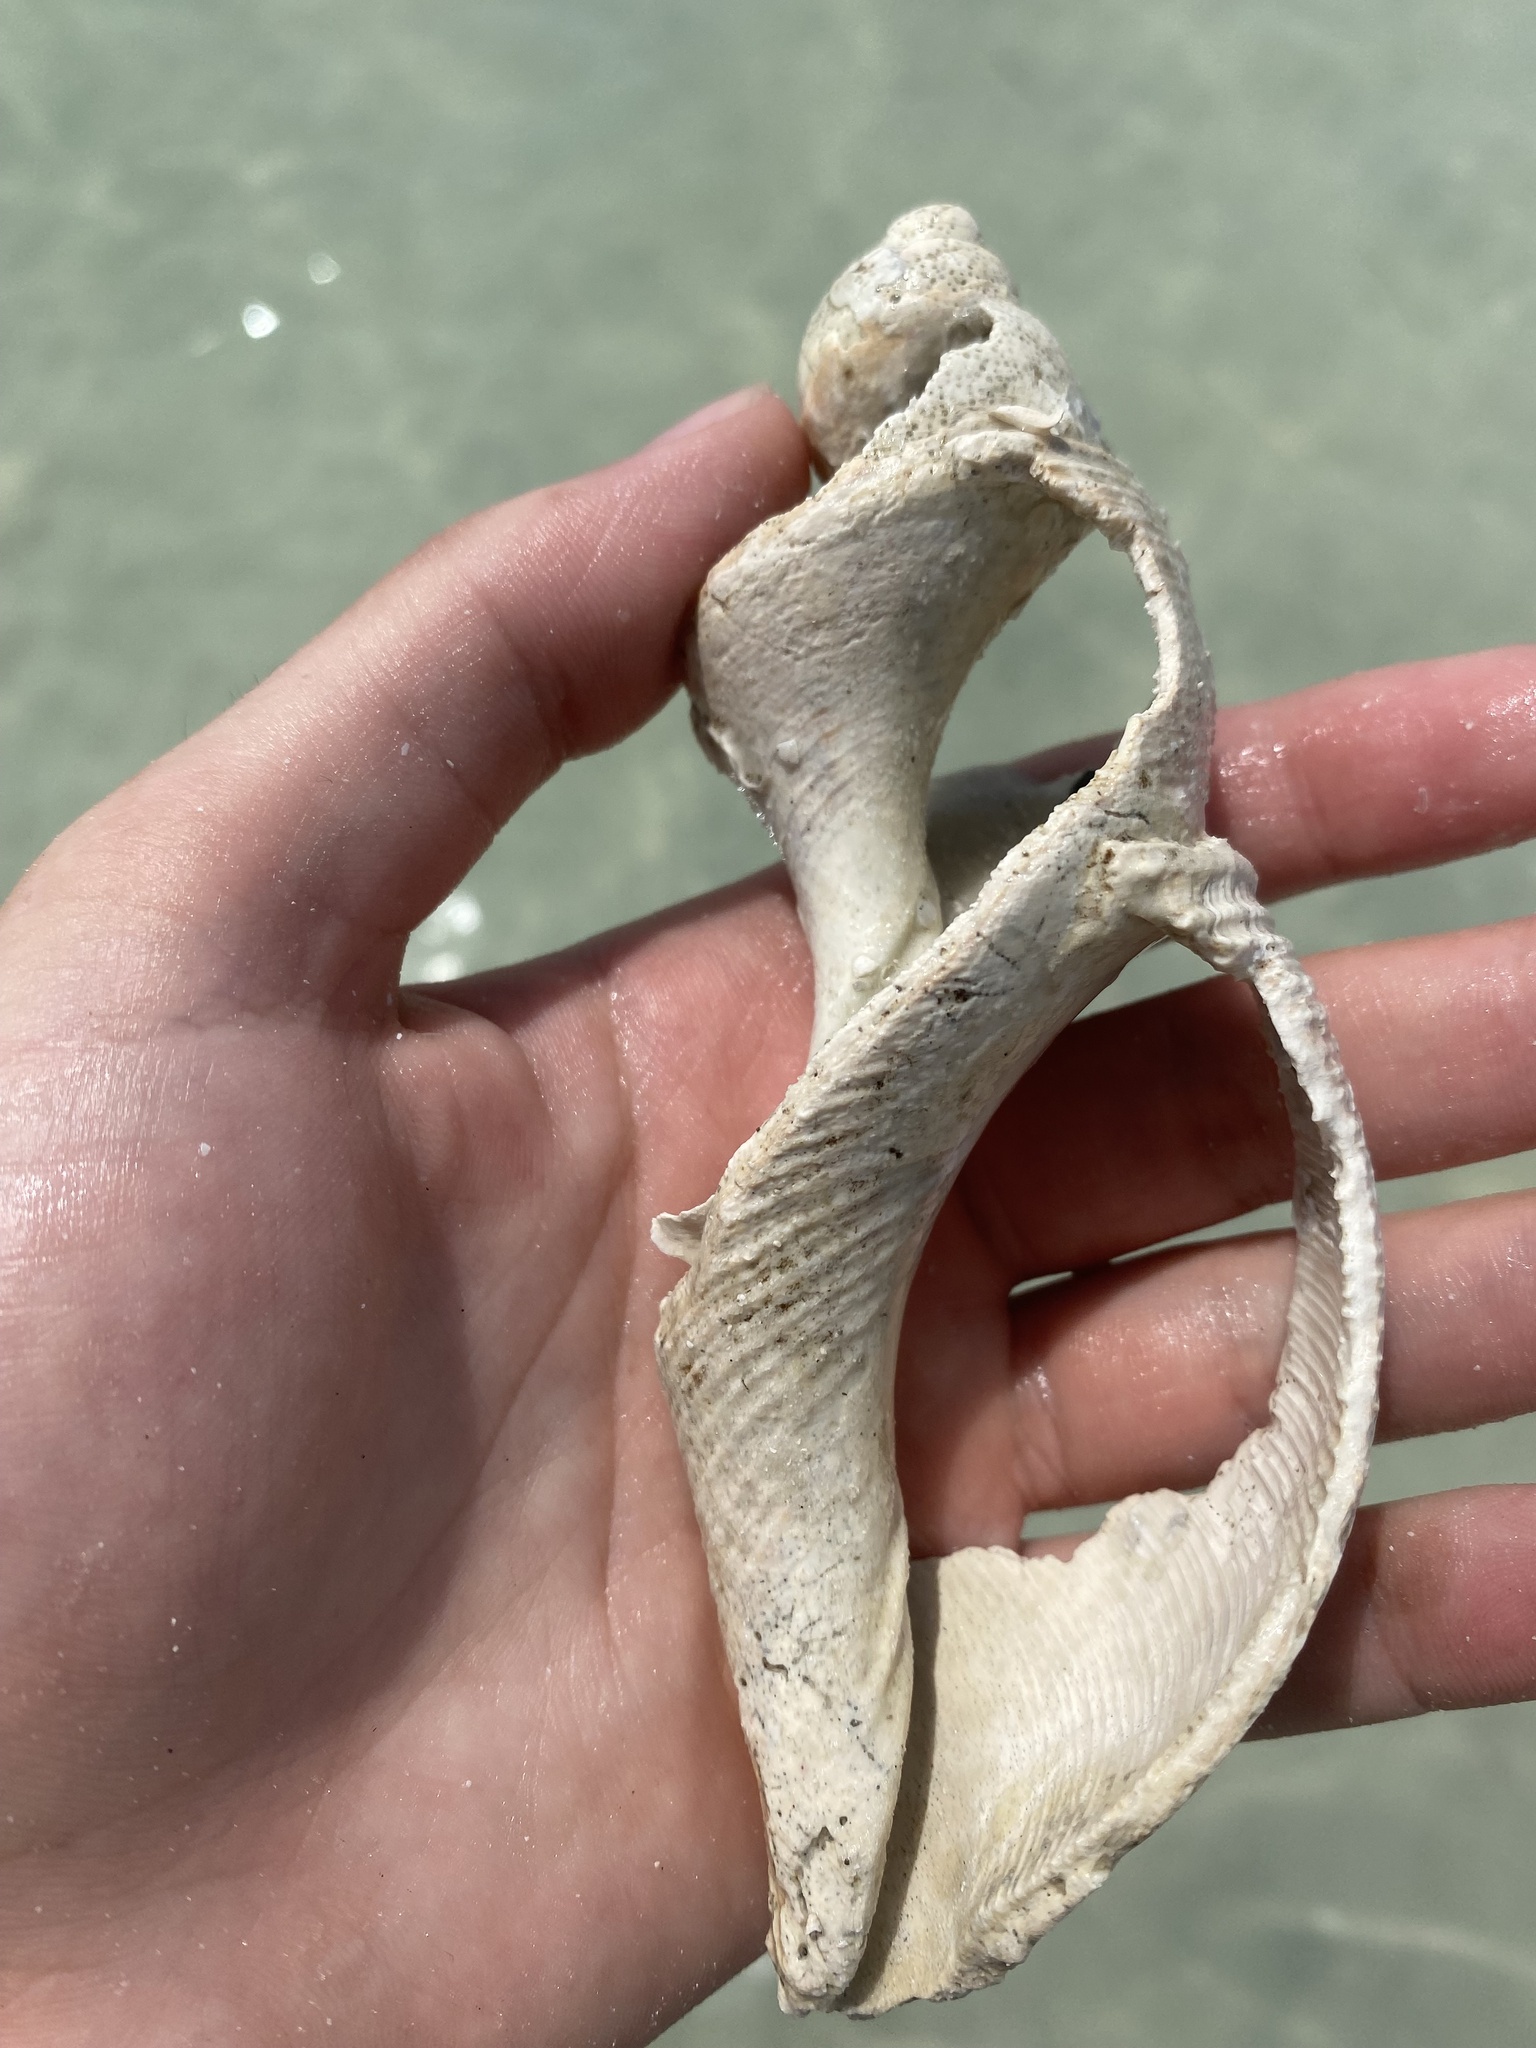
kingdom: Animalia
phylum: Mollusca
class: Gastropoda
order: Neogastropoda
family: Fasciolariidae
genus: Fasciolaria
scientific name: Fasciolaria tulipa
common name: True tulip
